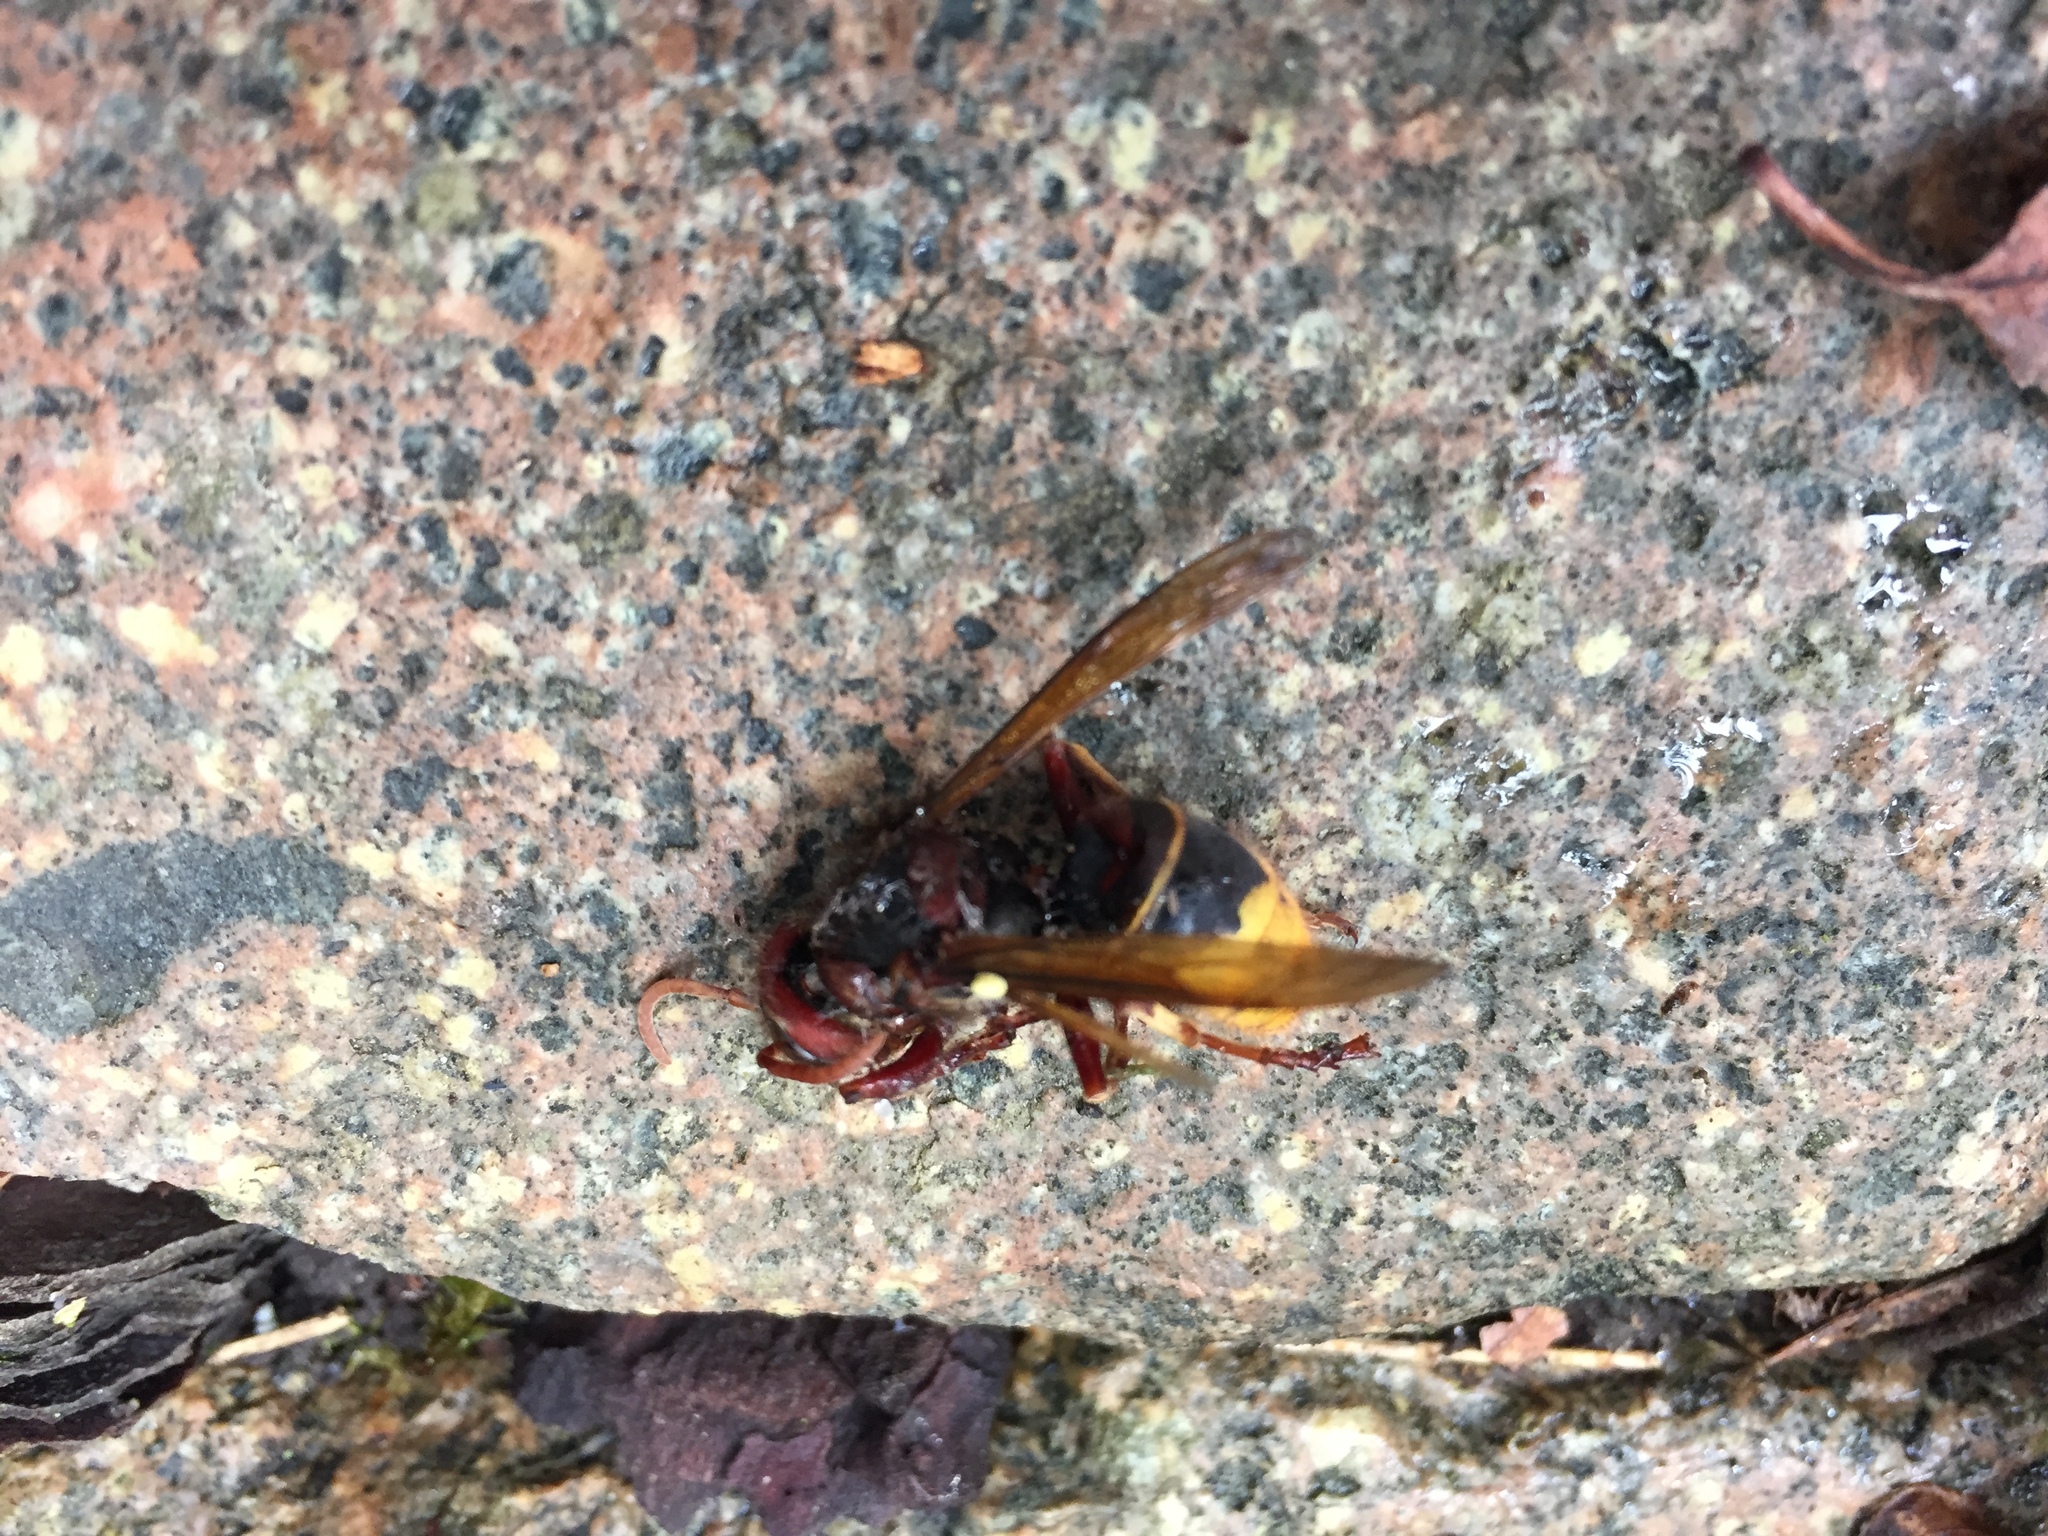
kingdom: Animalia
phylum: Arthropoda
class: Insecta
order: Hymenoptera
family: Vespidae
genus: Vespa
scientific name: Vespa crabro
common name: Hornet
